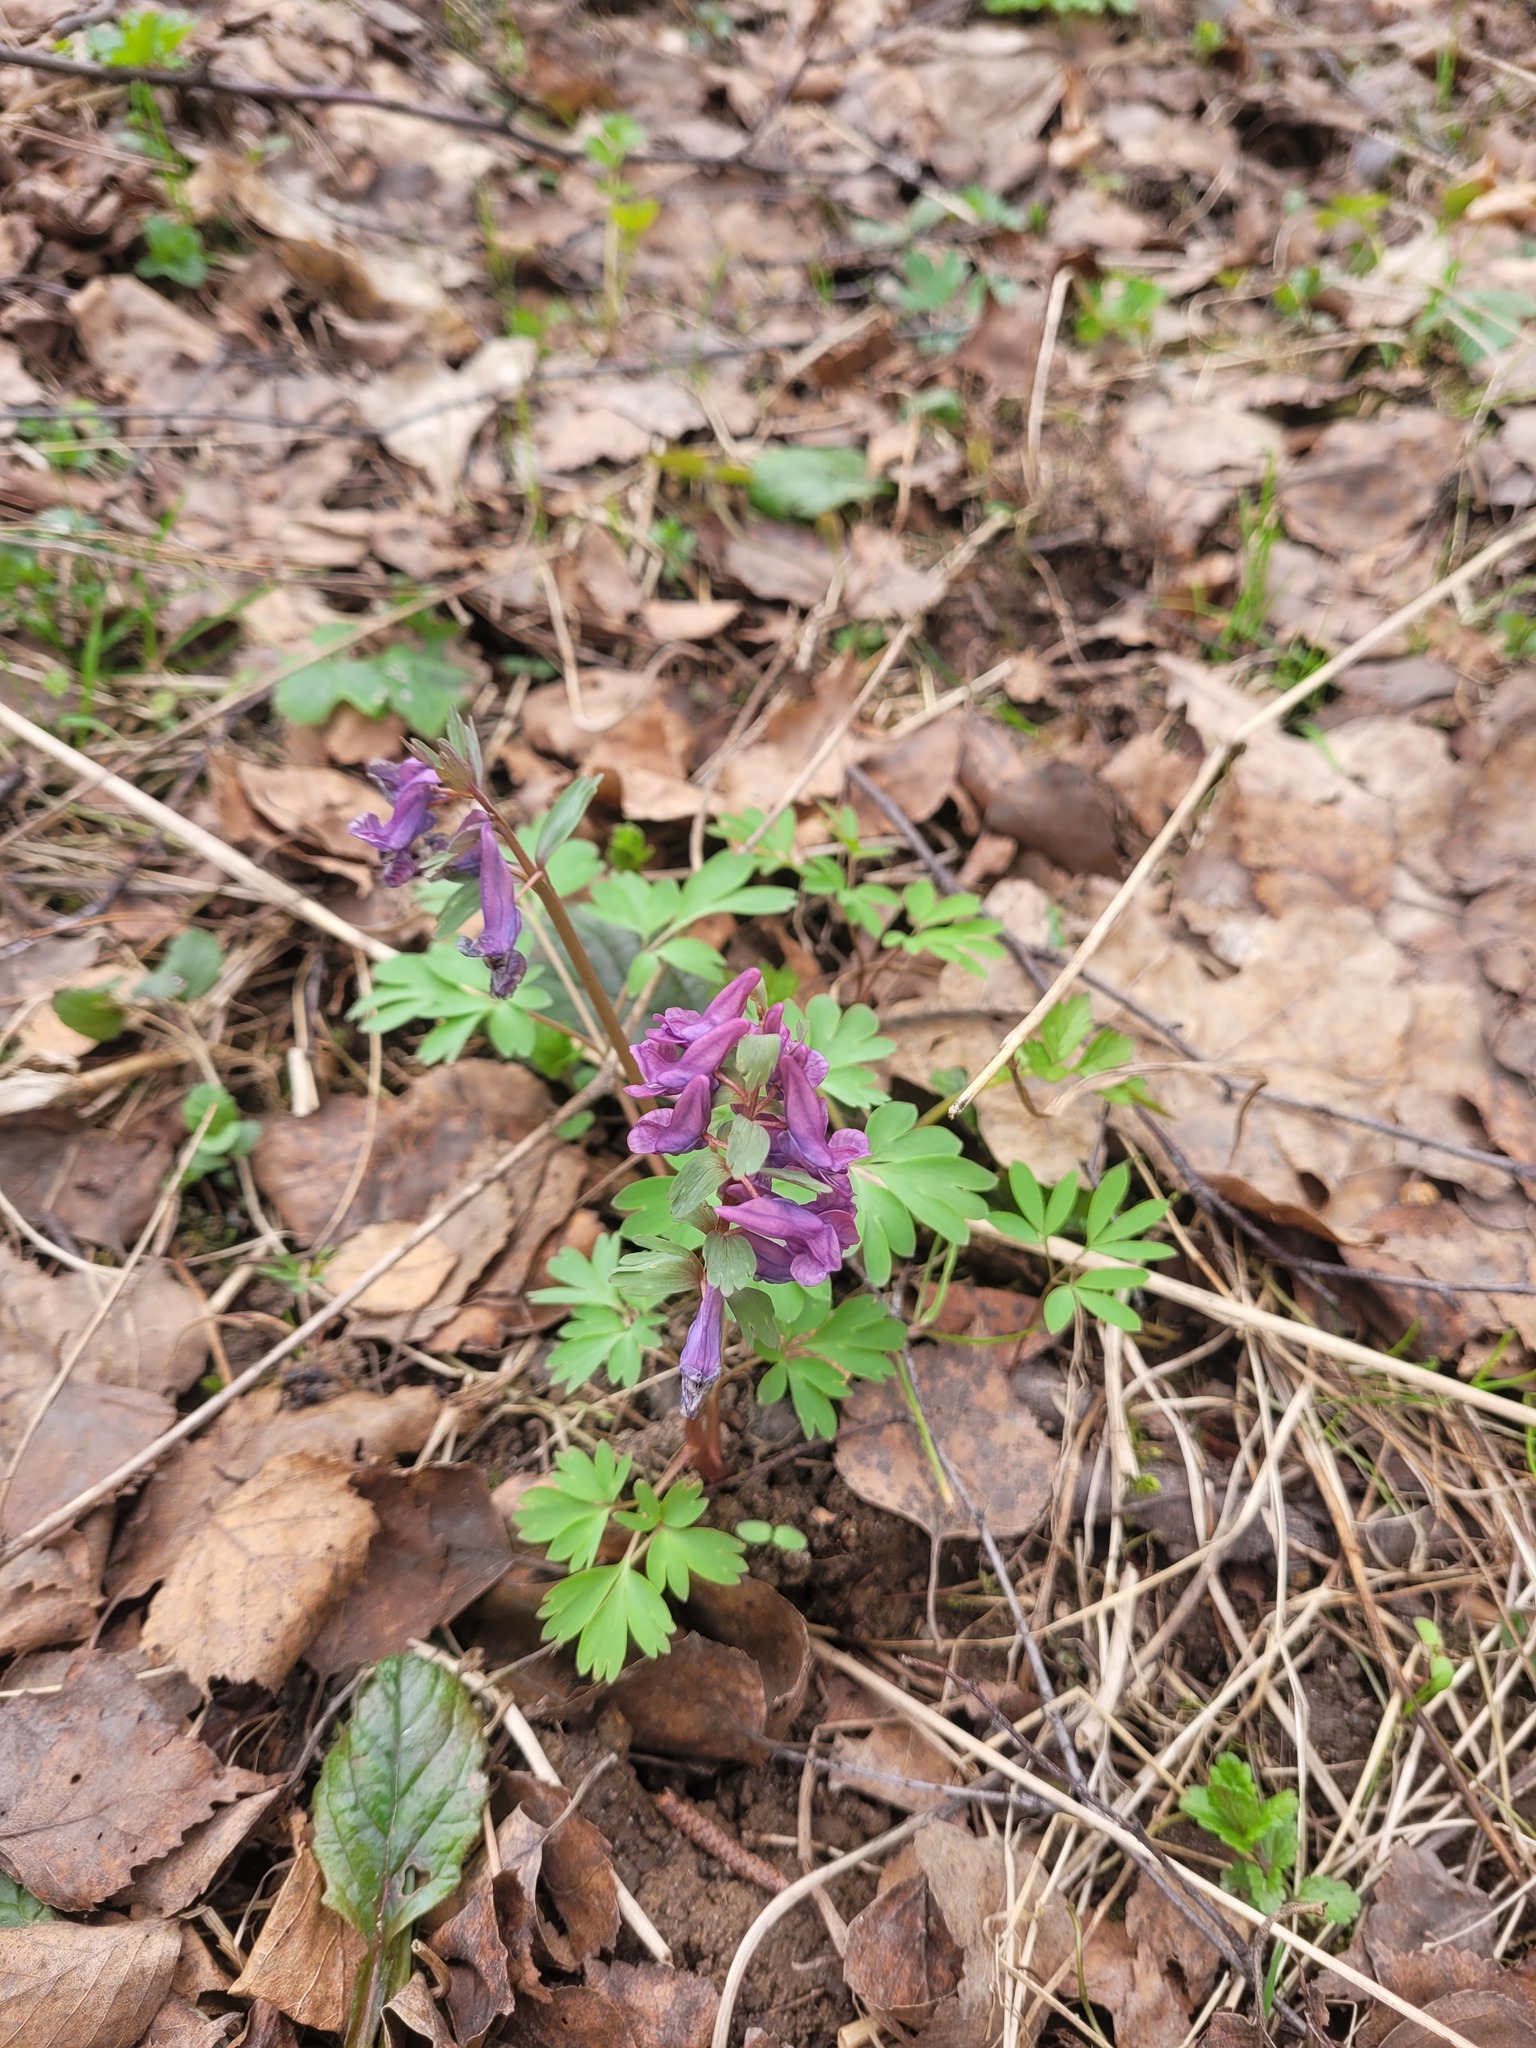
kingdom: Plantae
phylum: Tracheophyta
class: Magnoliopsida
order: Ranunculales
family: Papaveraceae
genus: Corydalis
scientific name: Corydalis solida
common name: Bird-in-a-bush
